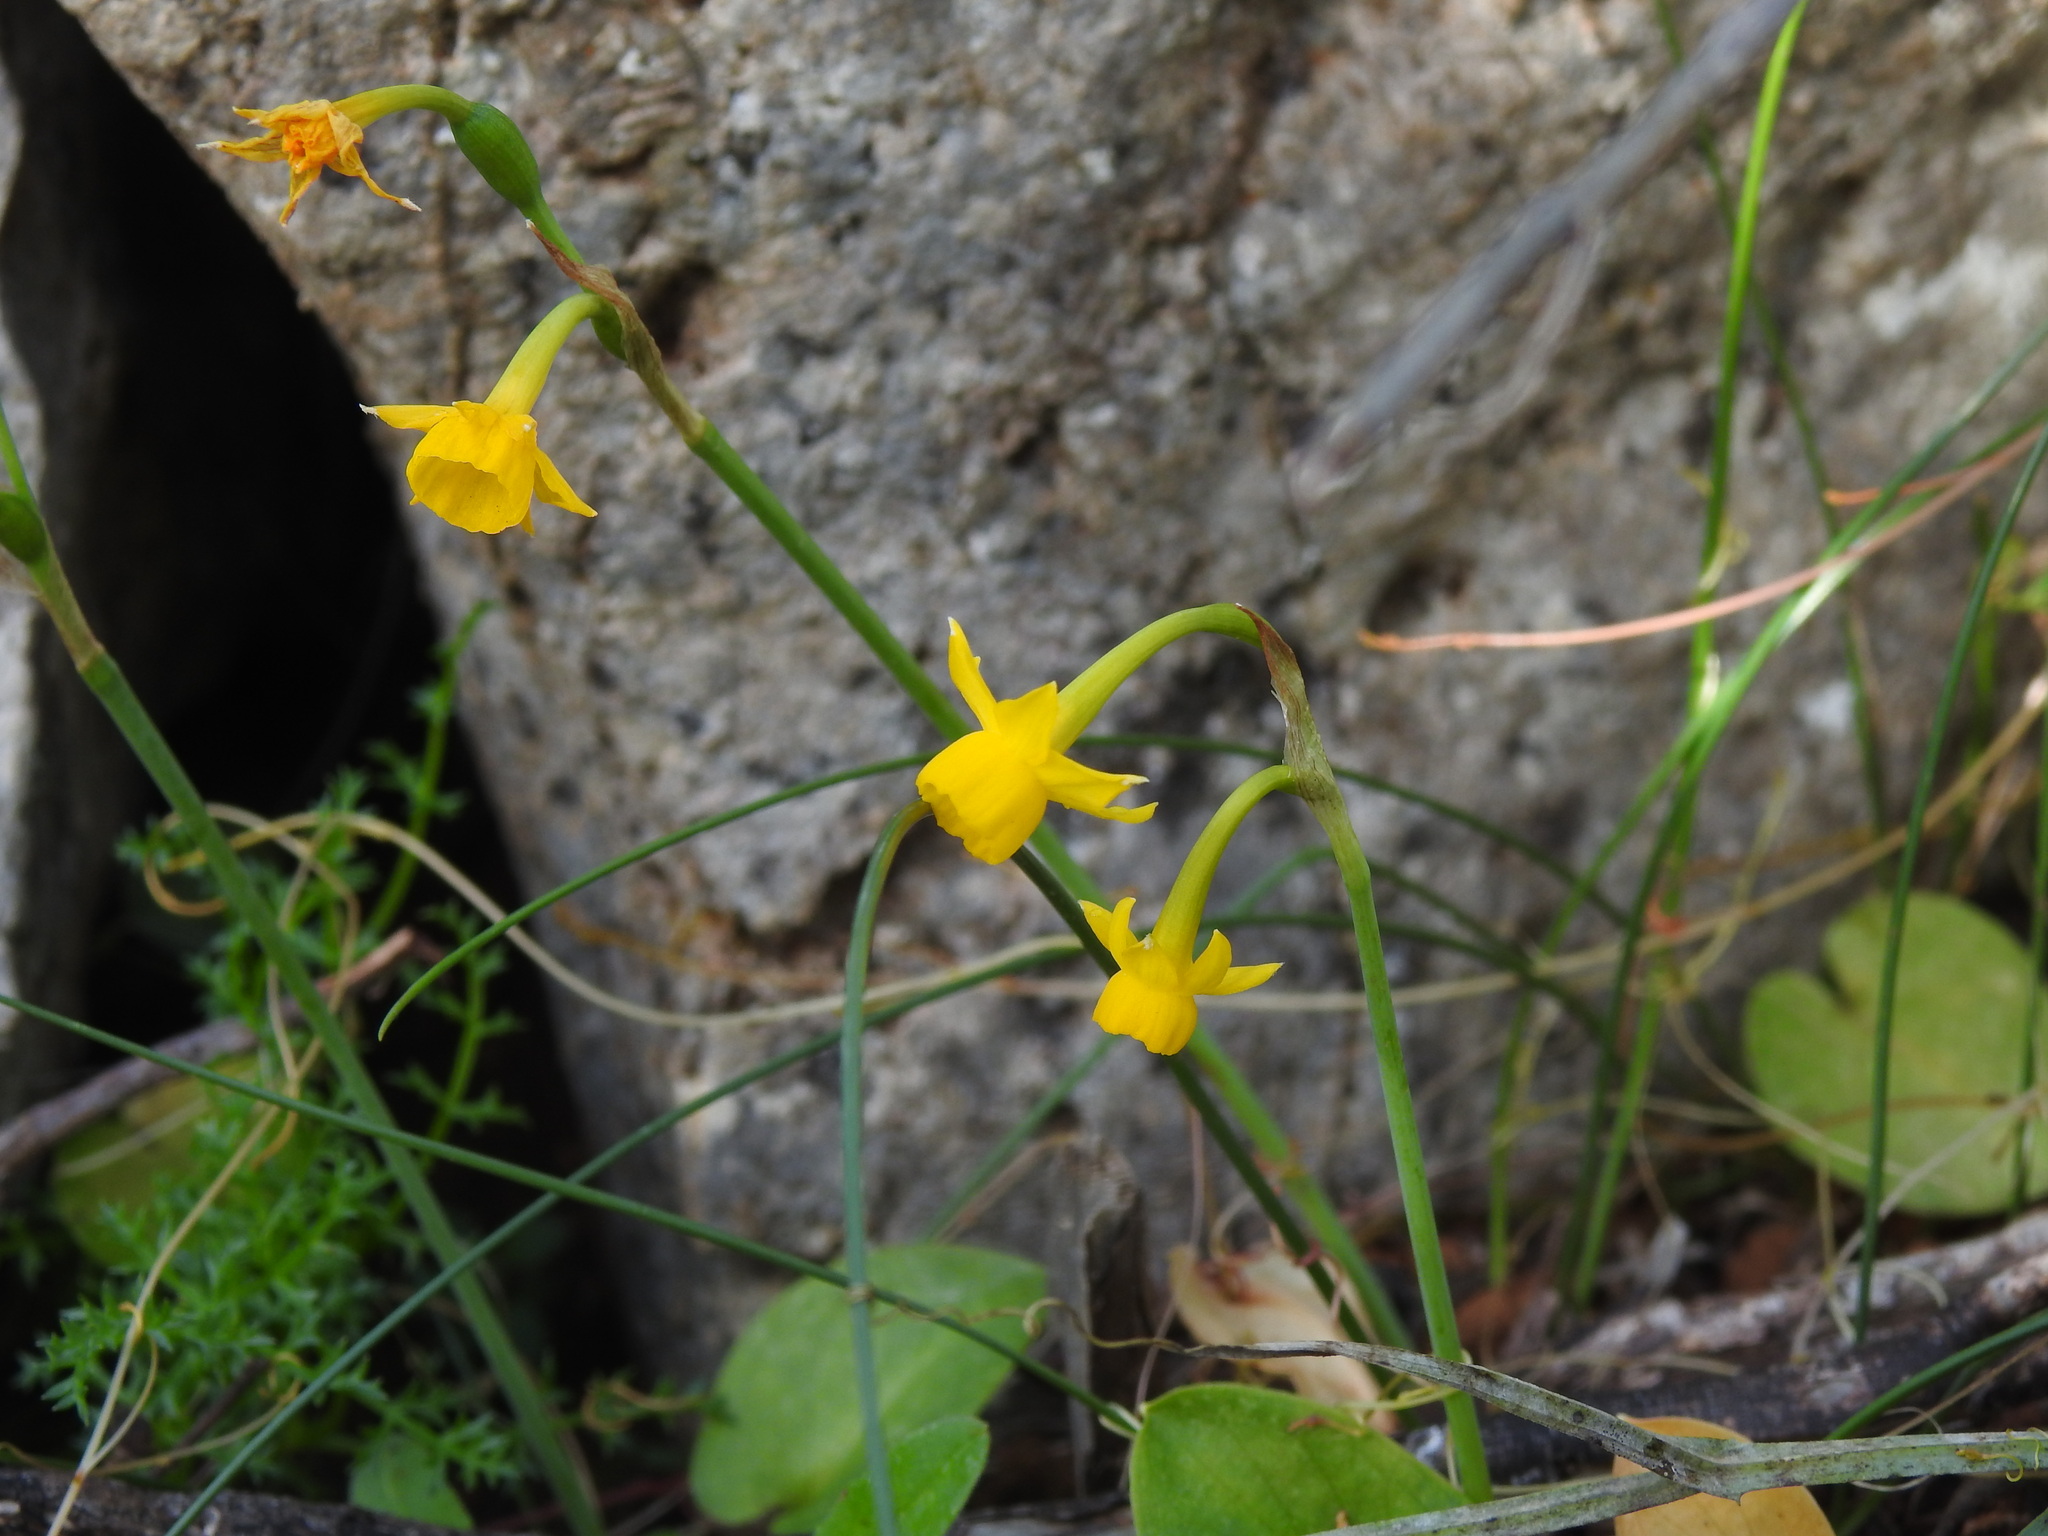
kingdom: Plantae
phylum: Tracheophyta
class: Liliopsida
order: Asparagales
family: Amaryllidaceae
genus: Narcissus
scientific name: Narcissus gaditanus
